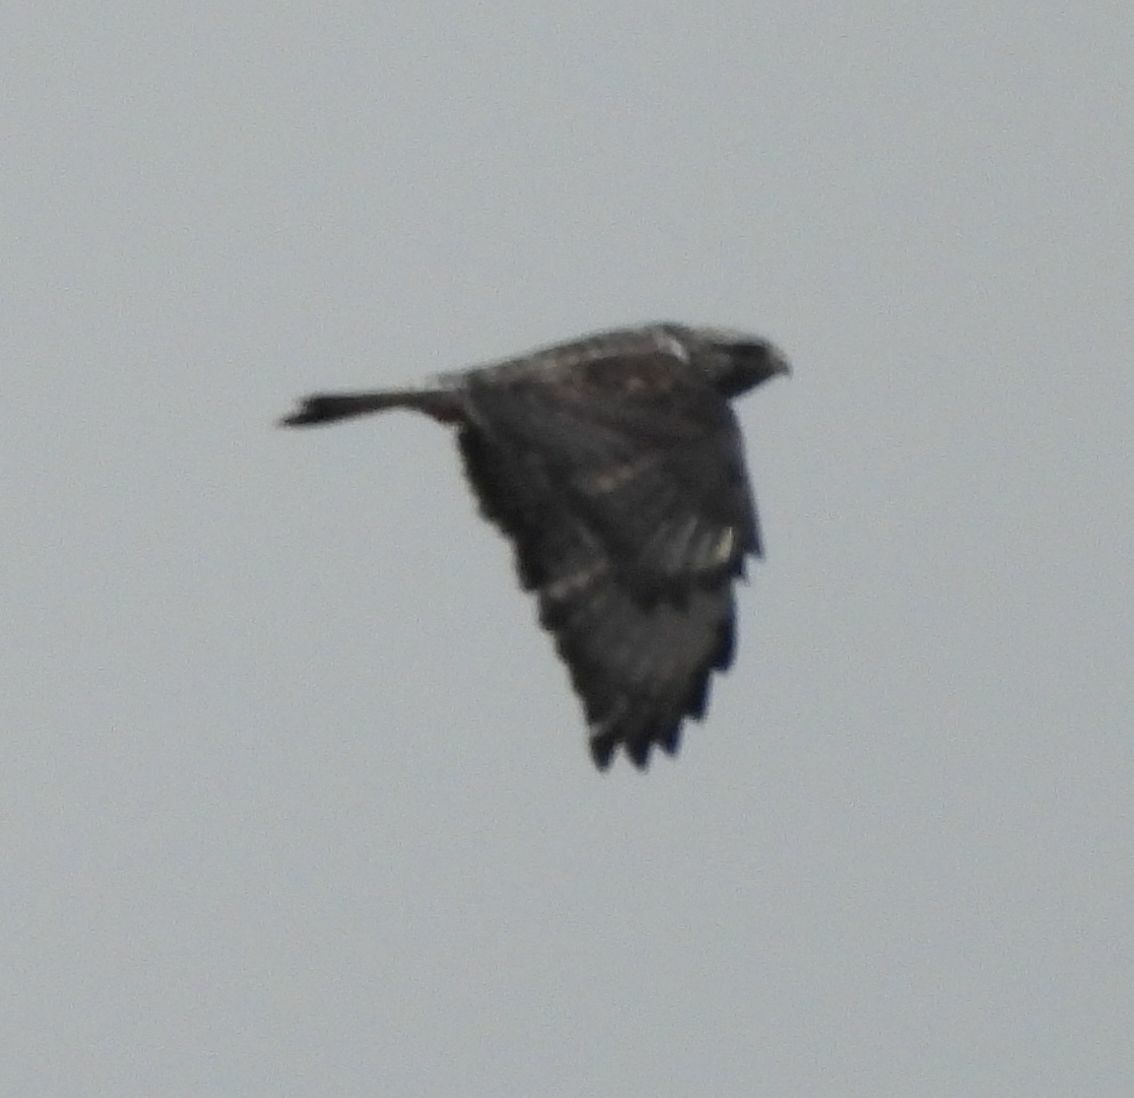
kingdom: Animalia
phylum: Chordata
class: Aves
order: Accipitriformes
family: Accipitridae
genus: Buteo
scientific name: Buteo lagopus
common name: Rough-legged buzzard
